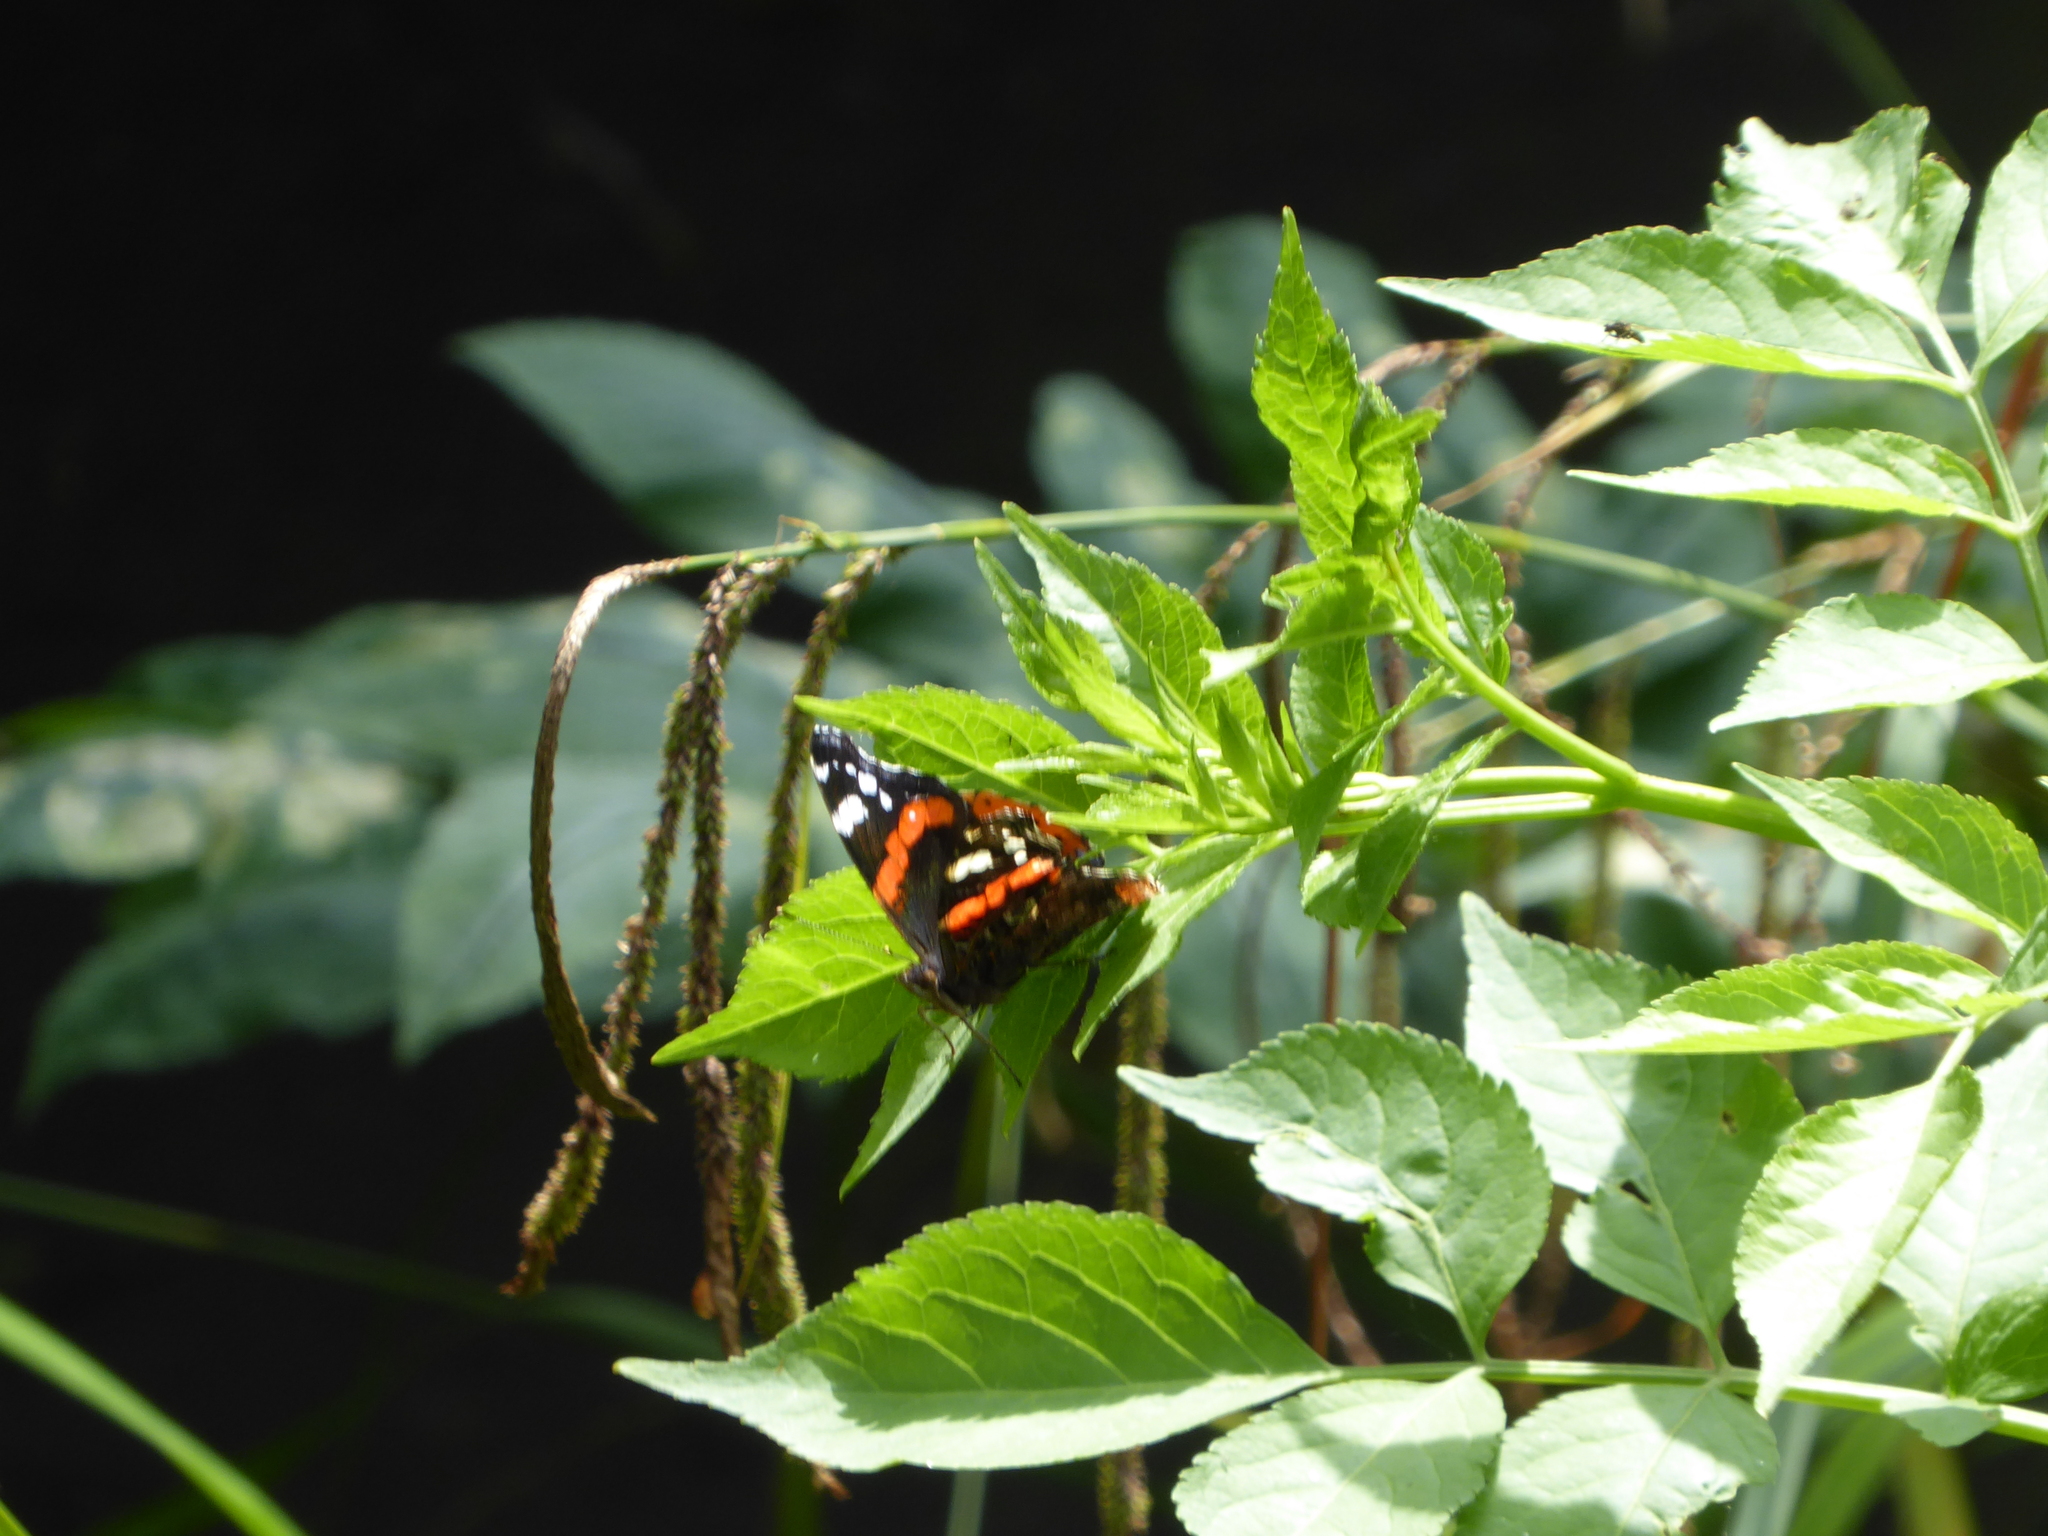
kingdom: Animalia
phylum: Arthropoda
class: Insecta
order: Lepidoptera
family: Nymphalidae
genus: Vanessa
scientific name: Vanessa atalanta
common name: Red admiral
